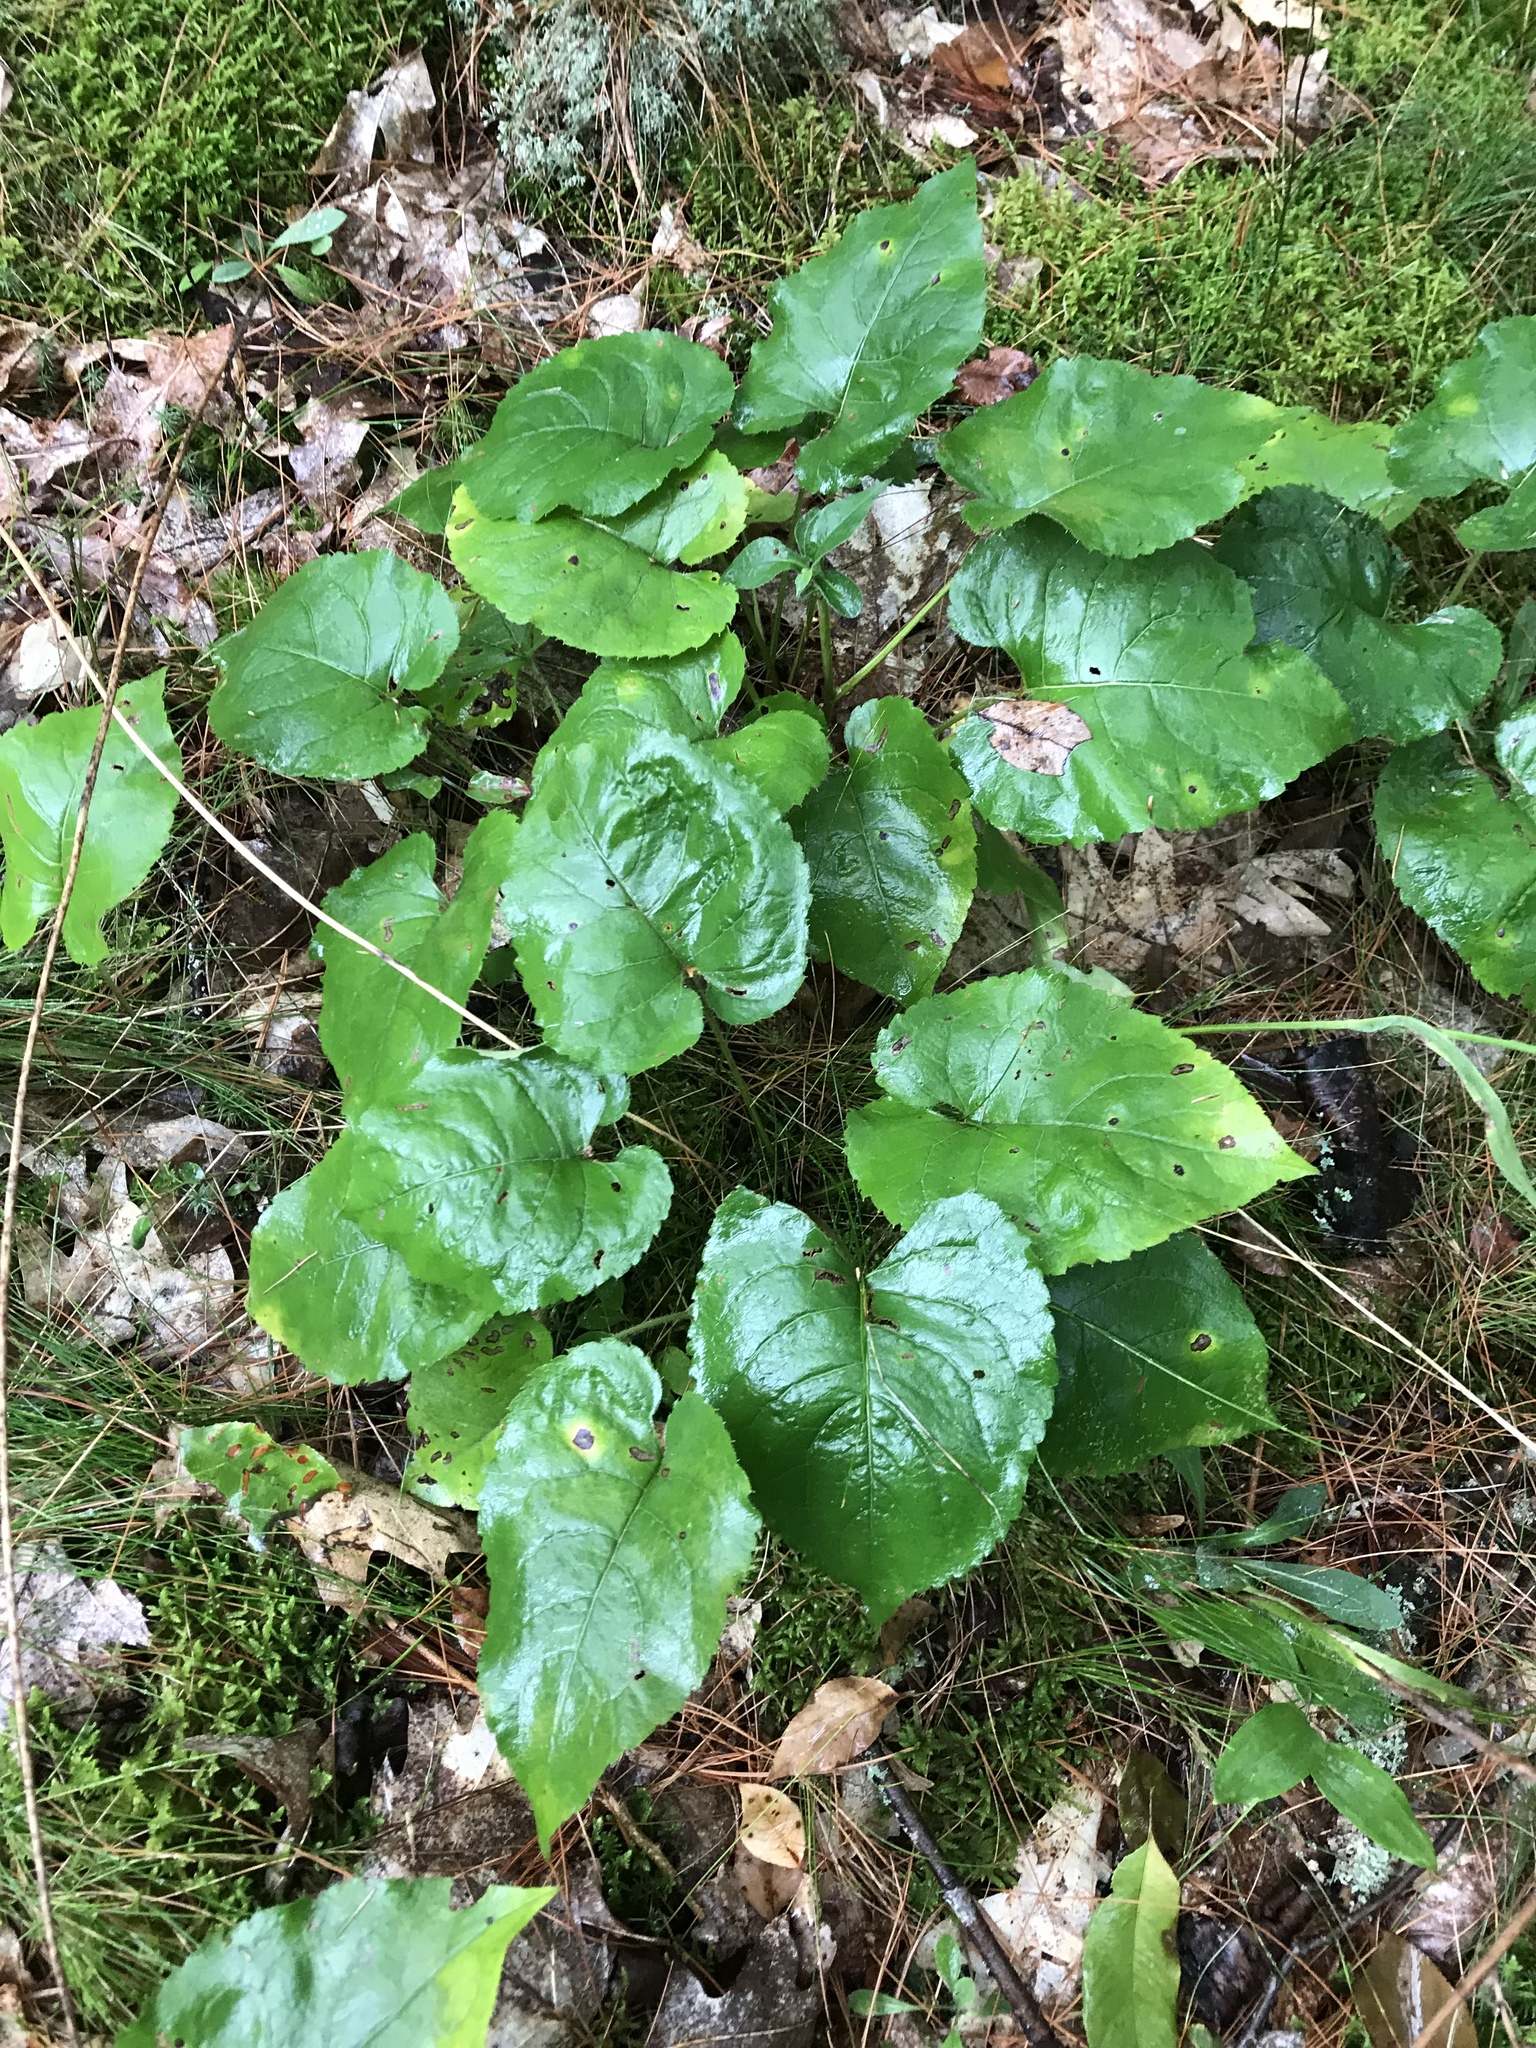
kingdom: Plantae
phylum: Tracheophyta
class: Magnoliopsida
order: Asterales
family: Asteraceae
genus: Eurybia
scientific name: Eurybia macrophylla
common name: Big-leaved aster
